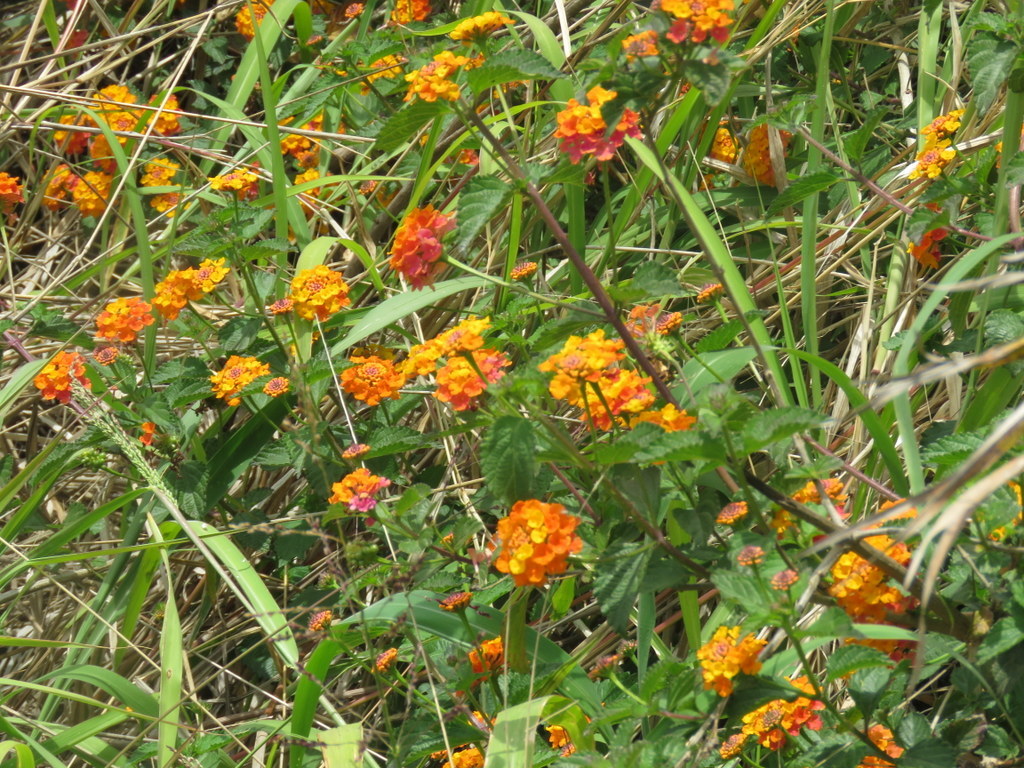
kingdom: Plantae
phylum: Tracheophyta
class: Magnoliopsida
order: Lamiales
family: Verbenaceae
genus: Lantana
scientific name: Lantana camara
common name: Lantana
